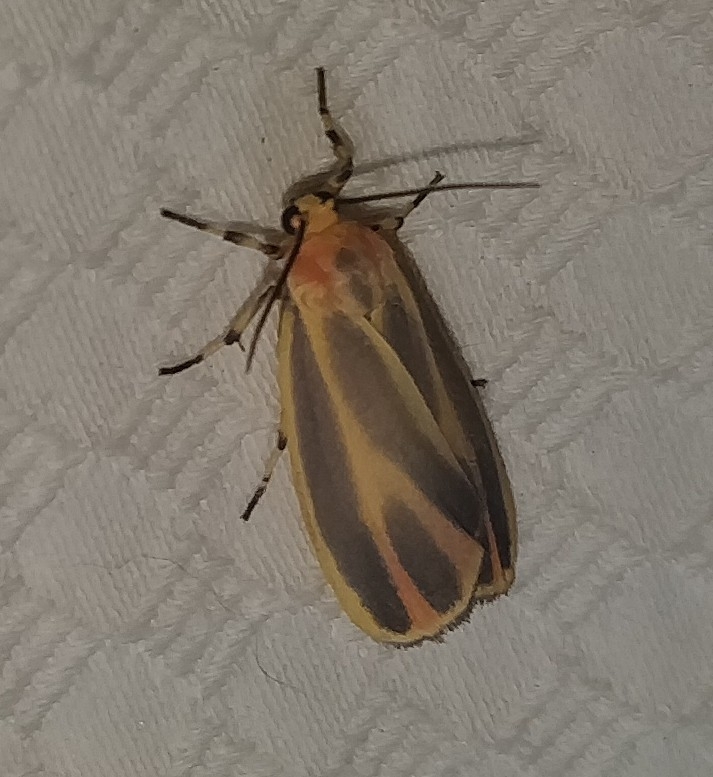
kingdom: Animalia
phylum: Arthropoda
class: Insecta
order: Lepidoptera
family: Erebidae
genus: Hypoprepia
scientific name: Hypoprepia fucosa
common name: Painted lichen moth
